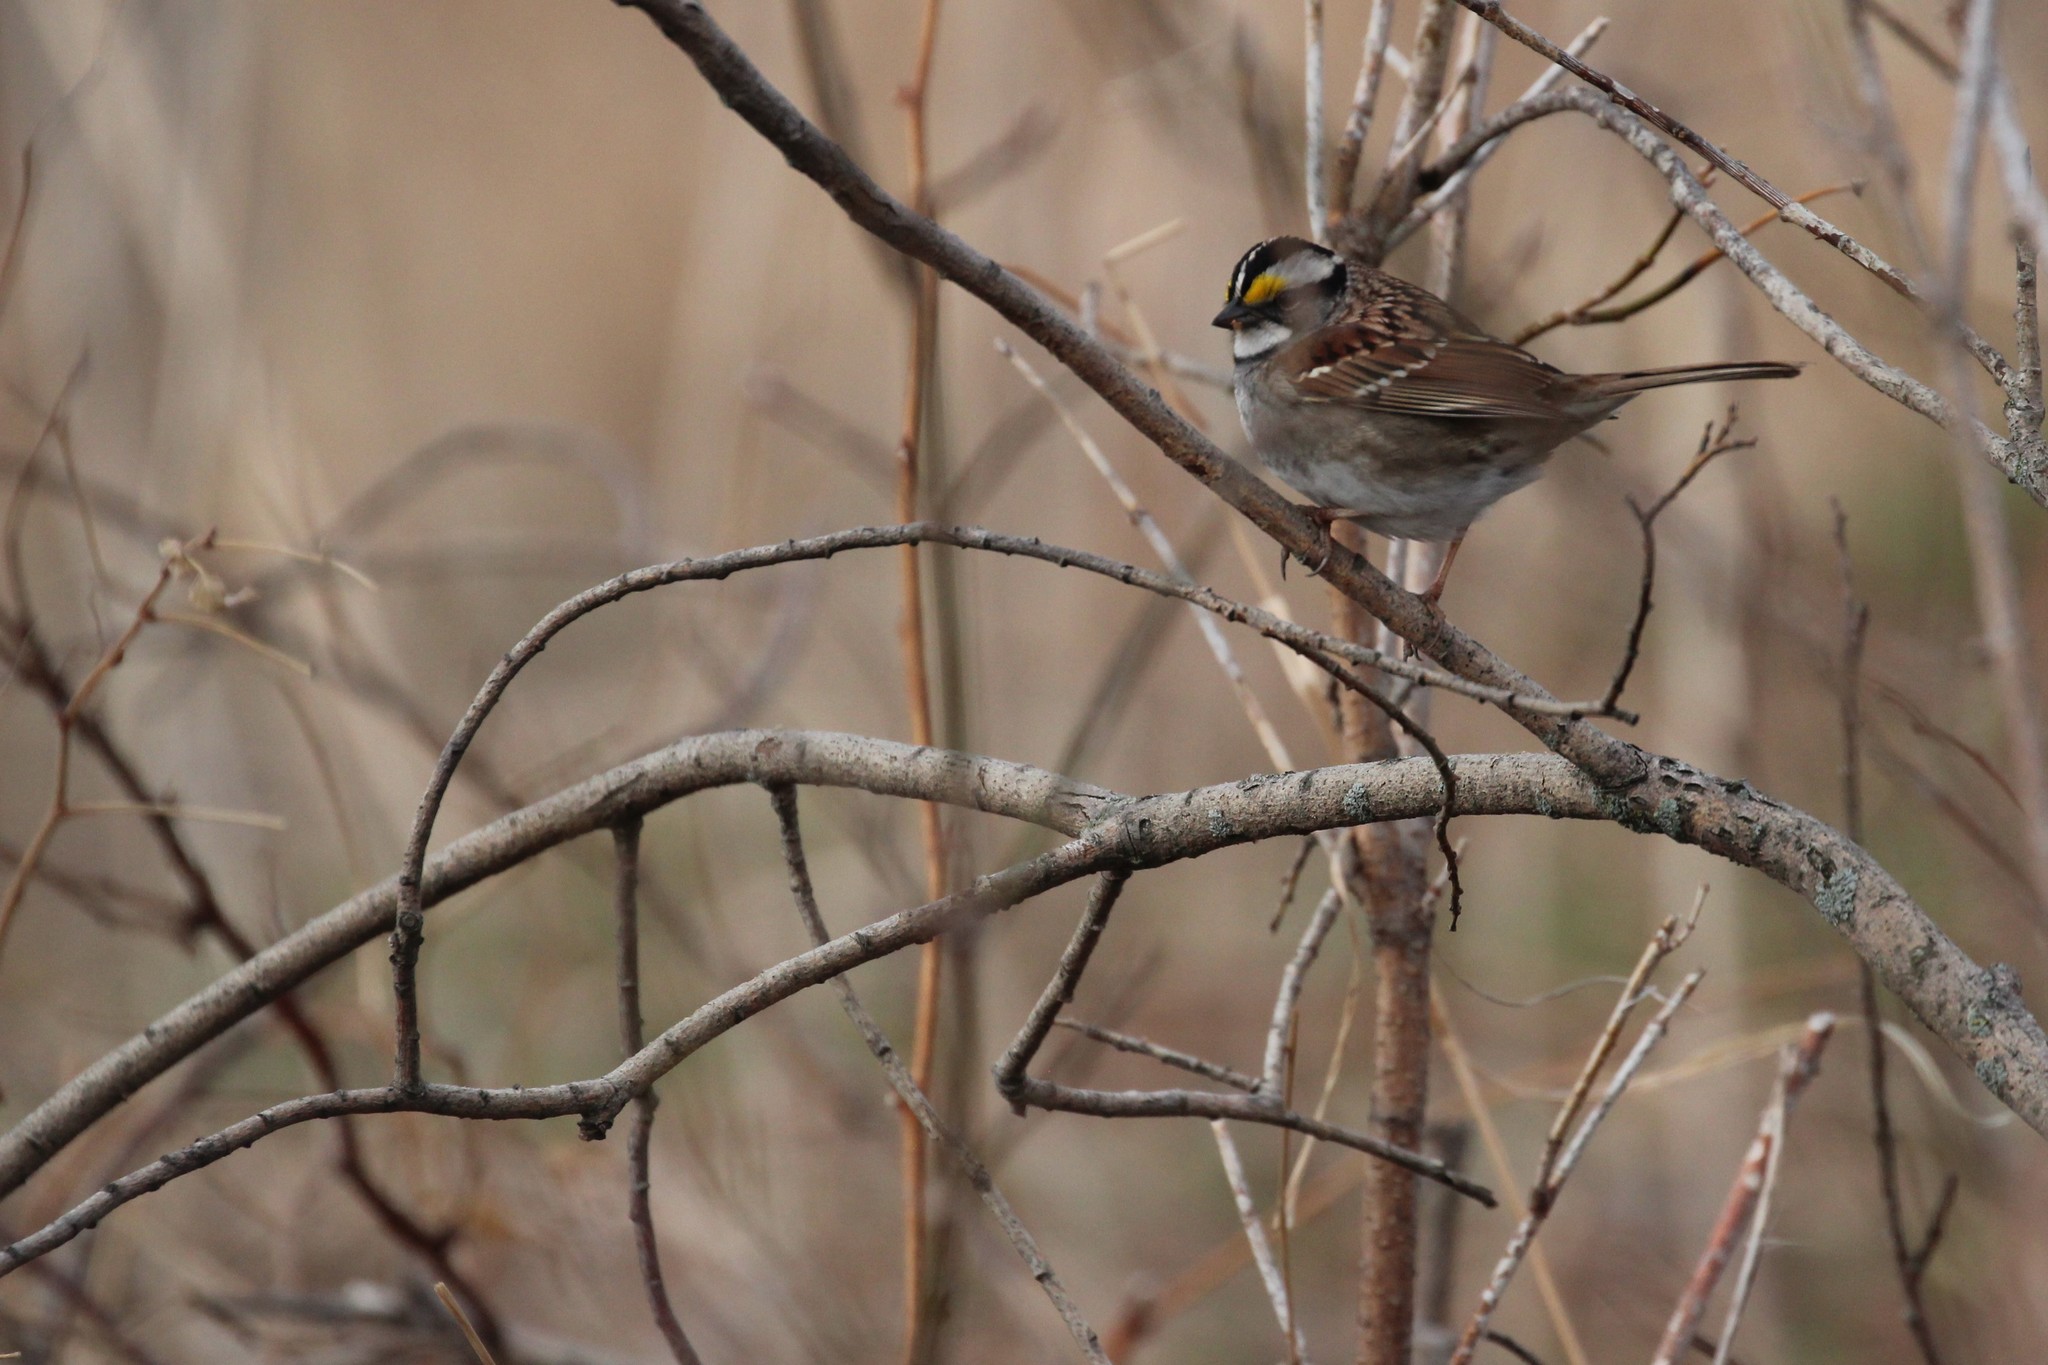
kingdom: Animalia
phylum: Chordata
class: Aves
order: Passeriformes
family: Passerellidae
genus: Zonotrichia
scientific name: Zonotrichia albicollis
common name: White-throated sparrow
